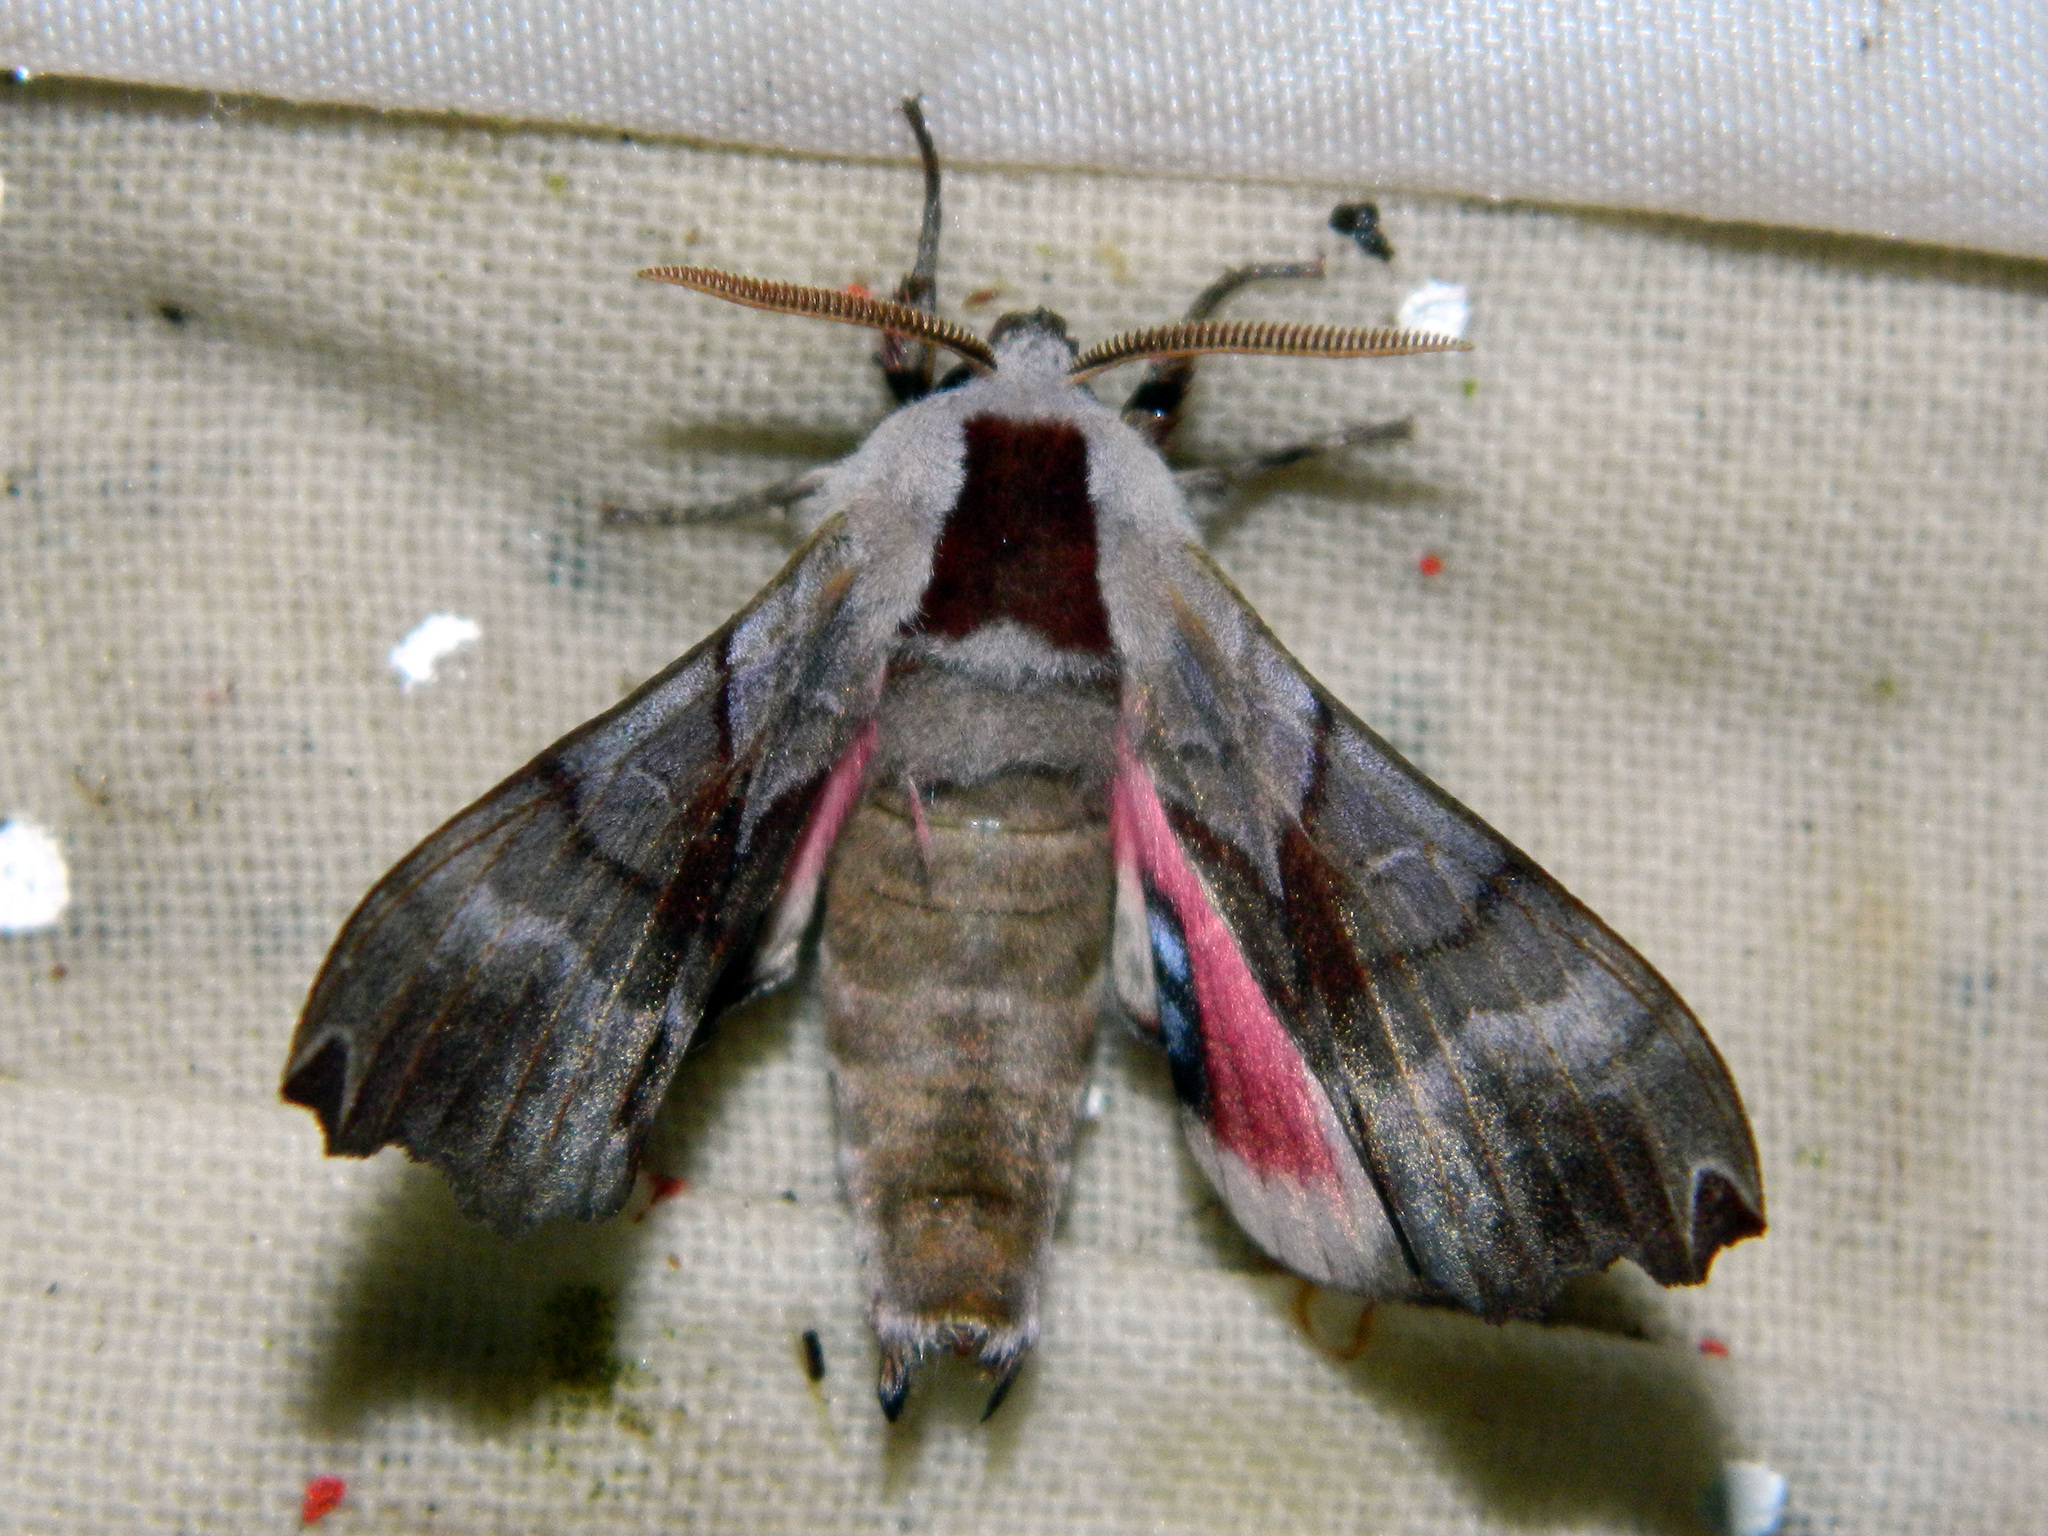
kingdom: Animalia
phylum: Arthropoda
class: Insecta
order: Lepidoptera
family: Sphingidae
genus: Smerinthus
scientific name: Smerinthus jamaicensis
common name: Twin spotted sphinx
